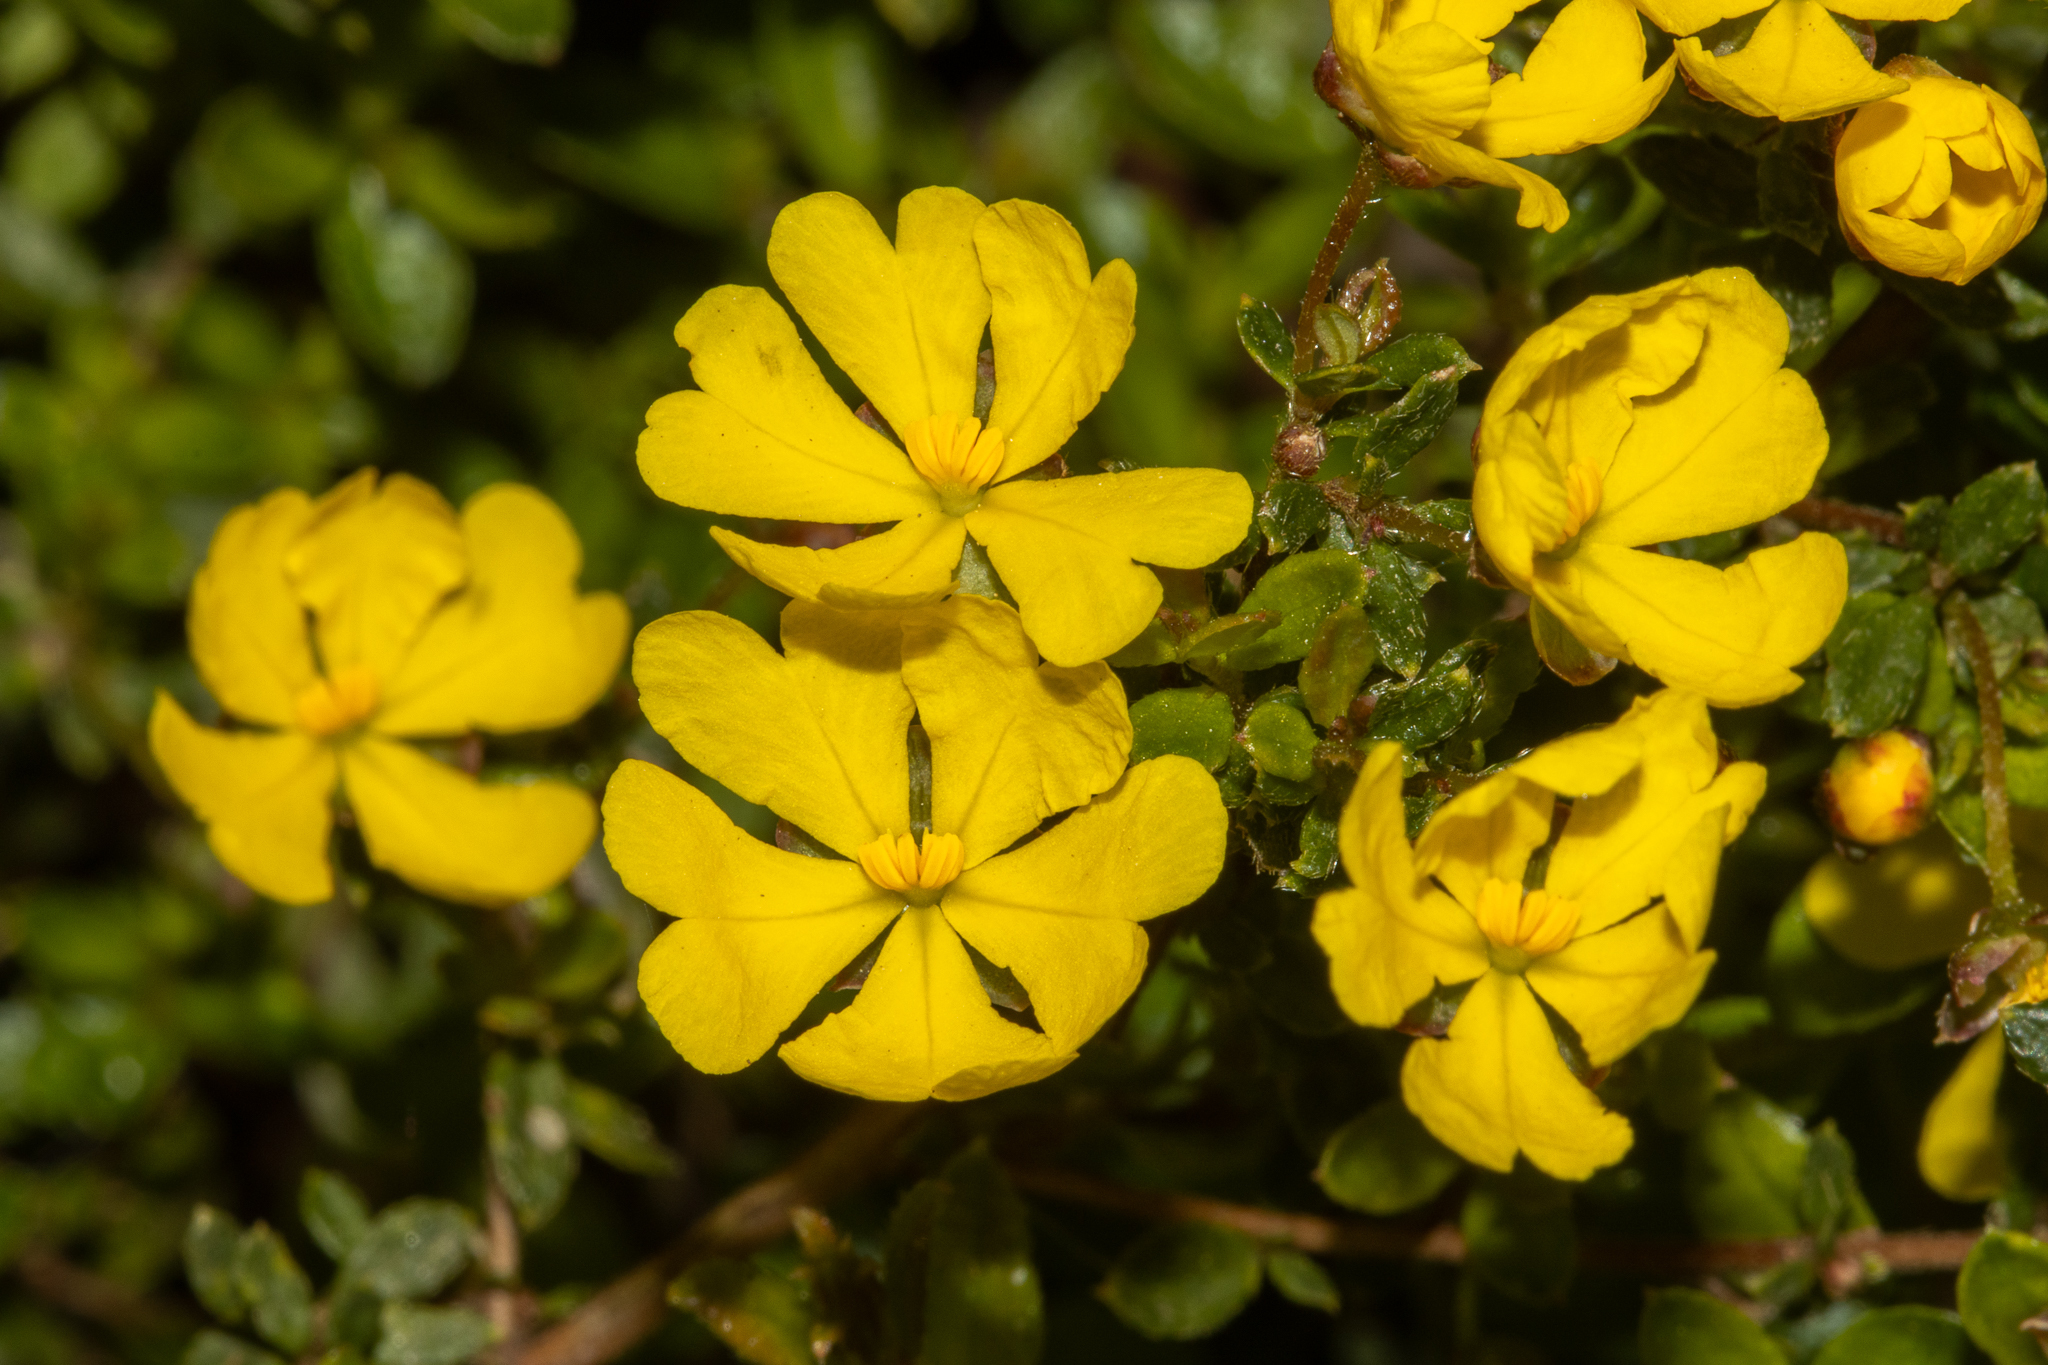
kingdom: Plantae
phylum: Tracheophyta
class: Magnoliopsida
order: Dilleniales
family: Dilleniaceae
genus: Hibbertia
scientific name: Hibbertia appressa
